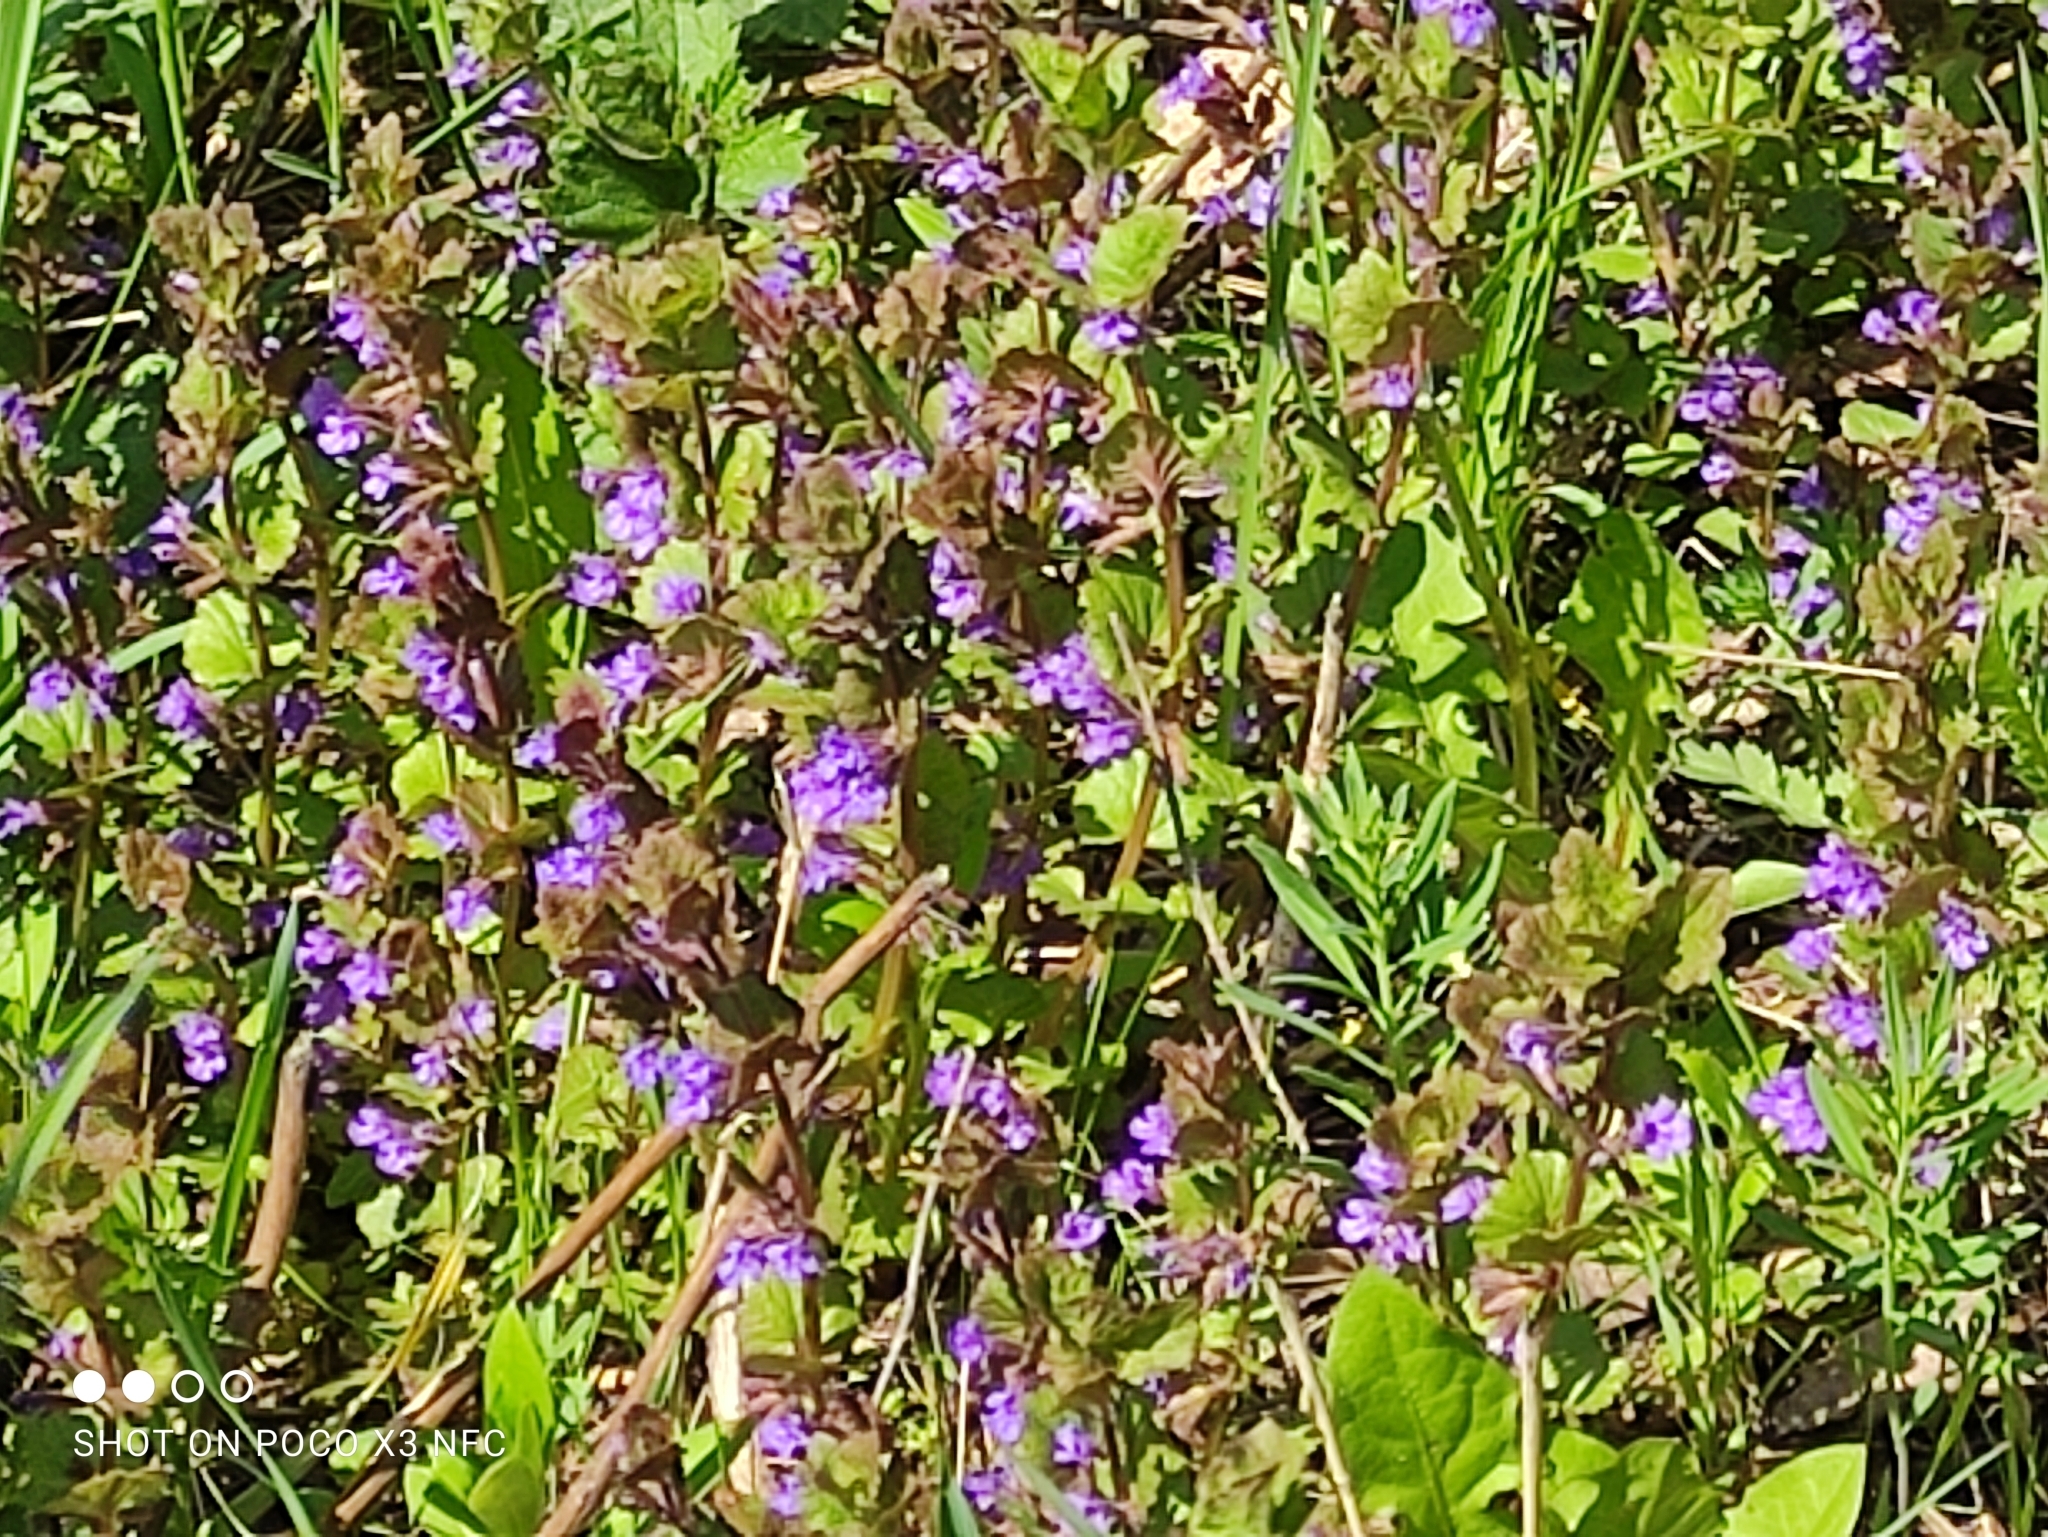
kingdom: Plantae
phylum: Tracheophyta
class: Magnoliopsida
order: Lamiales
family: Lamiaceae
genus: Glechoma
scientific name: Glechoma hederacea
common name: Ground ivy
